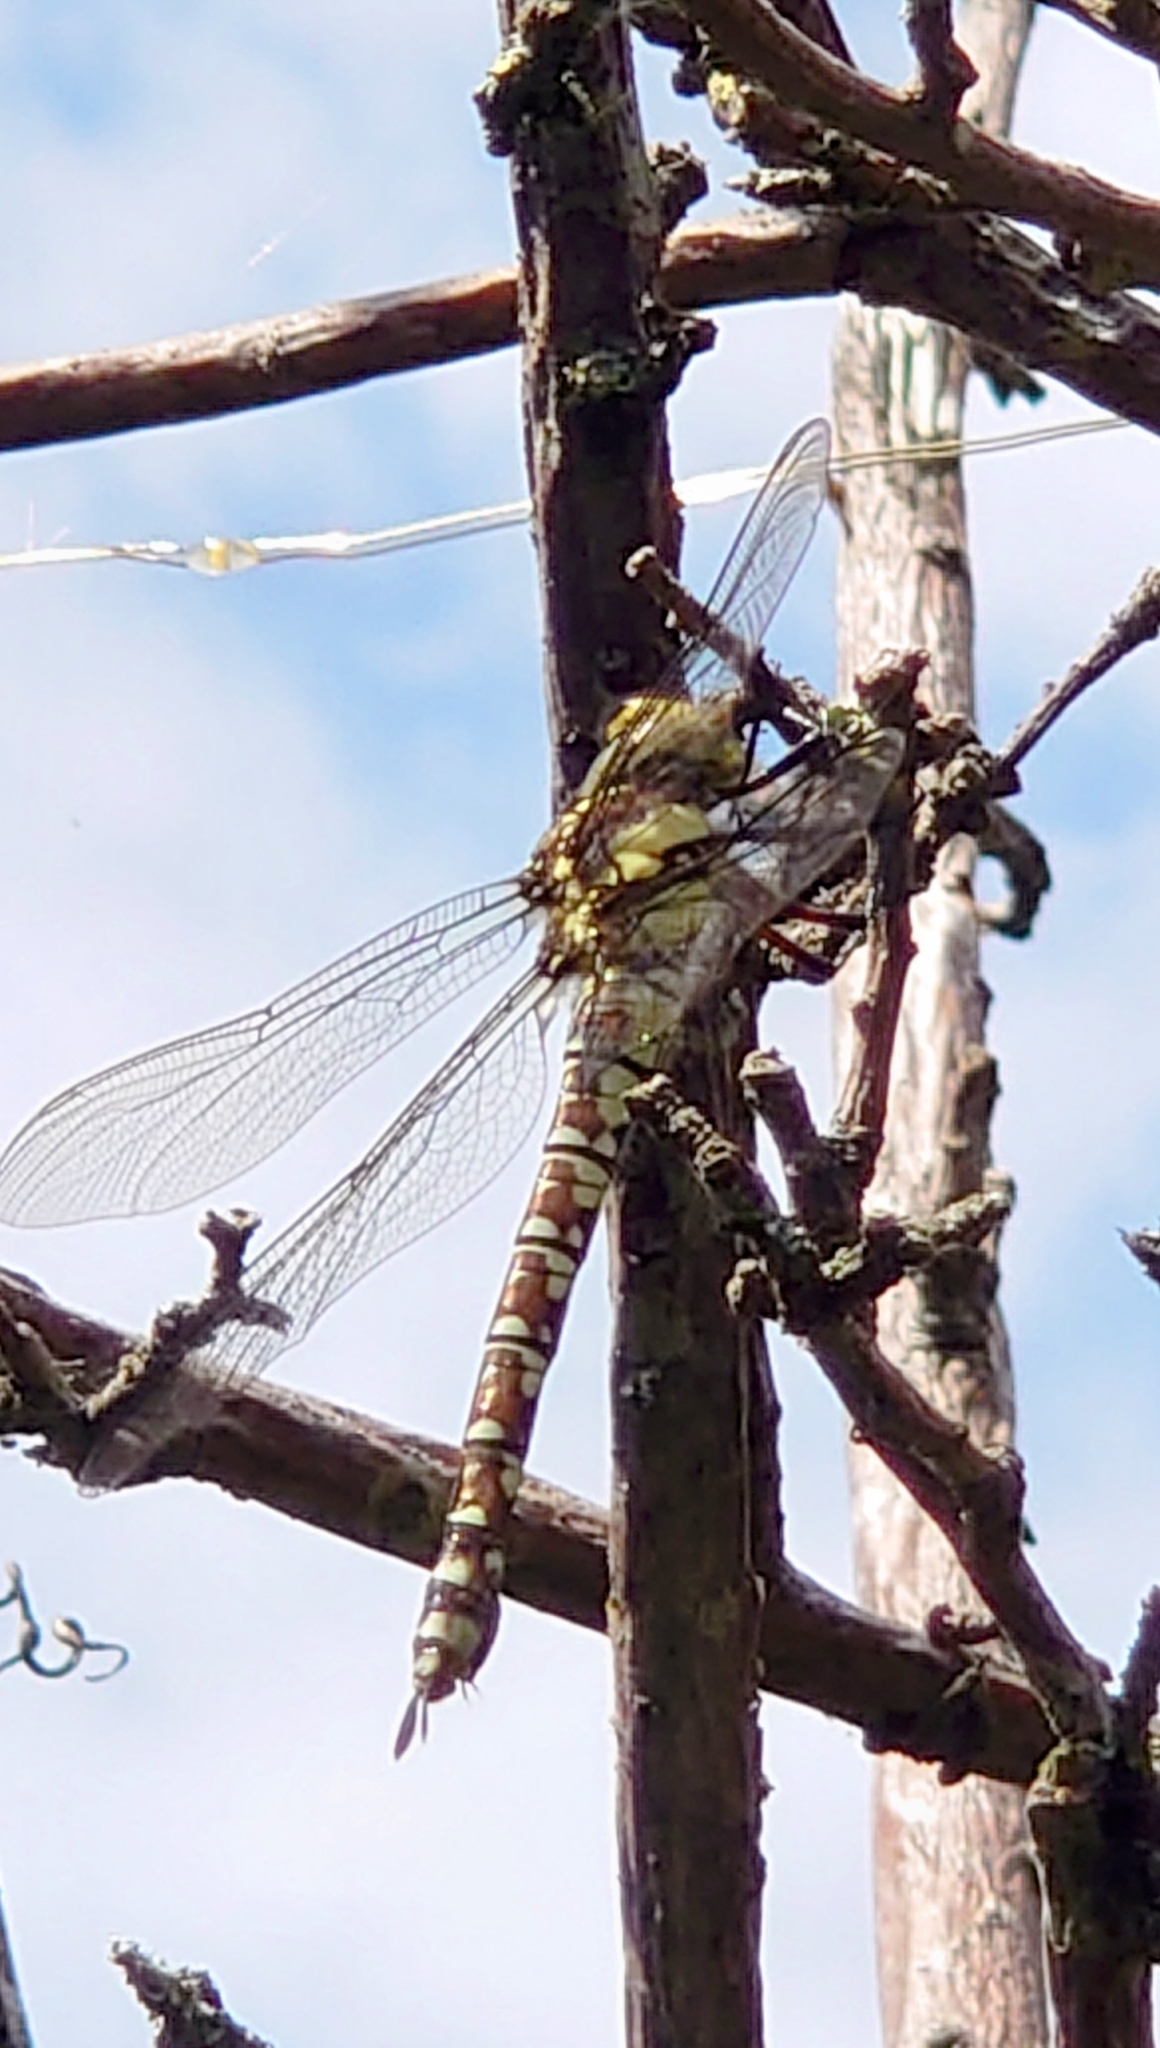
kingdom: Animalia
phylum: Arthropoda
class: Insecta
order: Odonata
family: Aeshnidae
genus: Aeshna
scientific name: Aeshna cyanea
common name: Southern hawker
